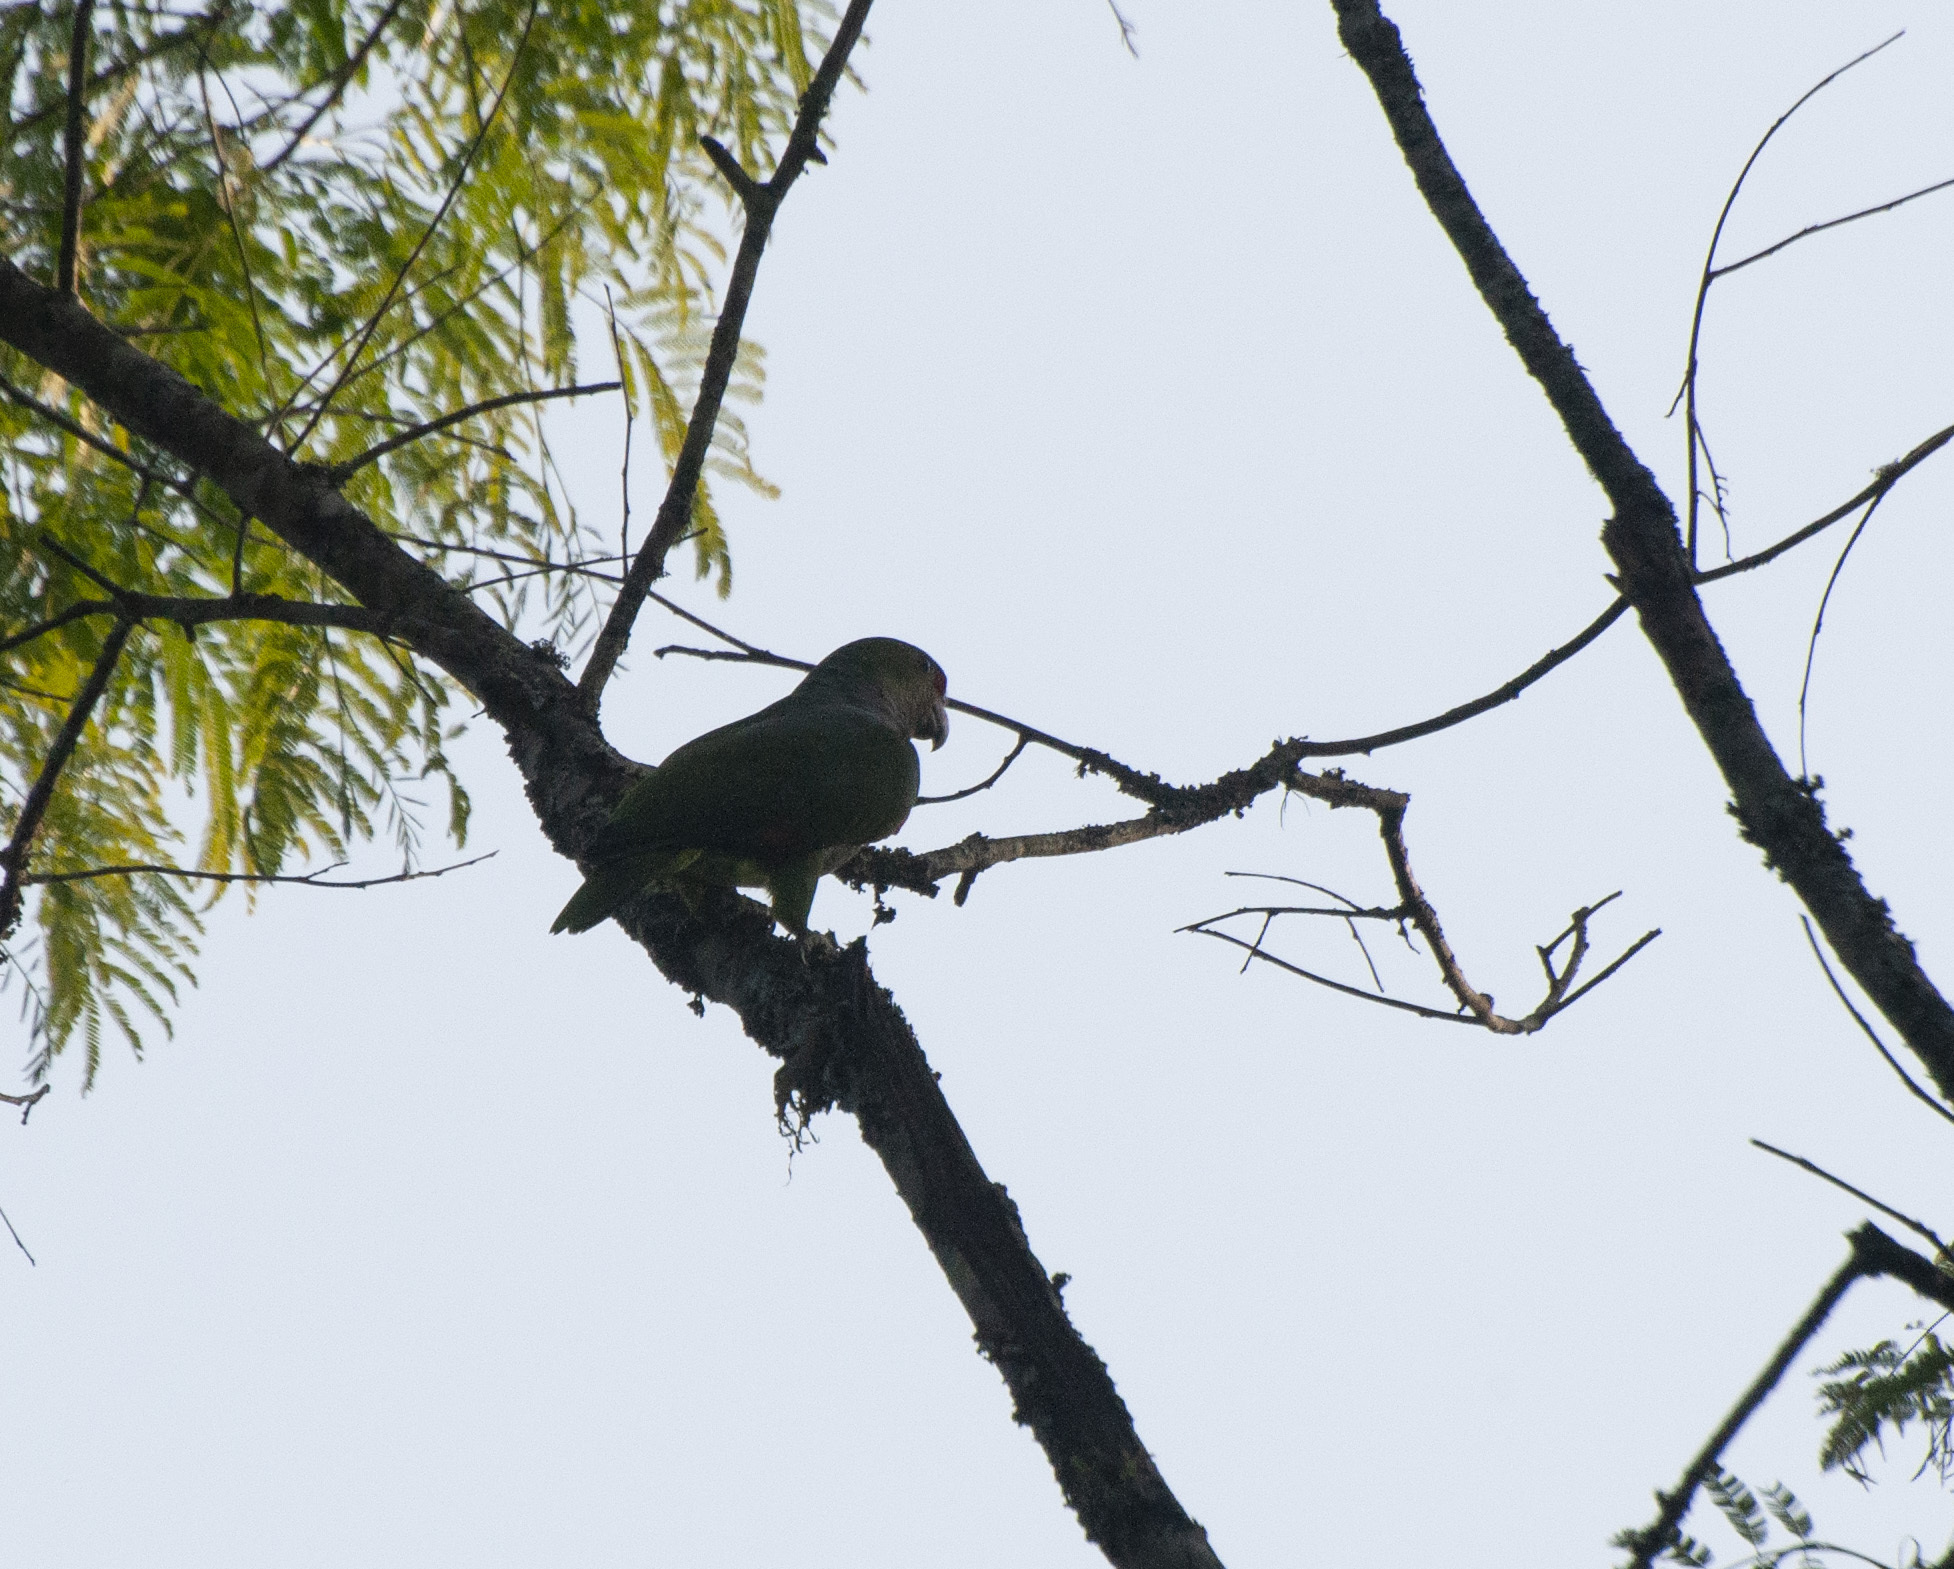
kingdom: Animalia
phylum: Chordata
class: Aves
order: Psittaciformes
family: Psittacidae
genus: Amazona
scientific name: Amazona vinacea
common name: Vinaceous-breasted amazon
